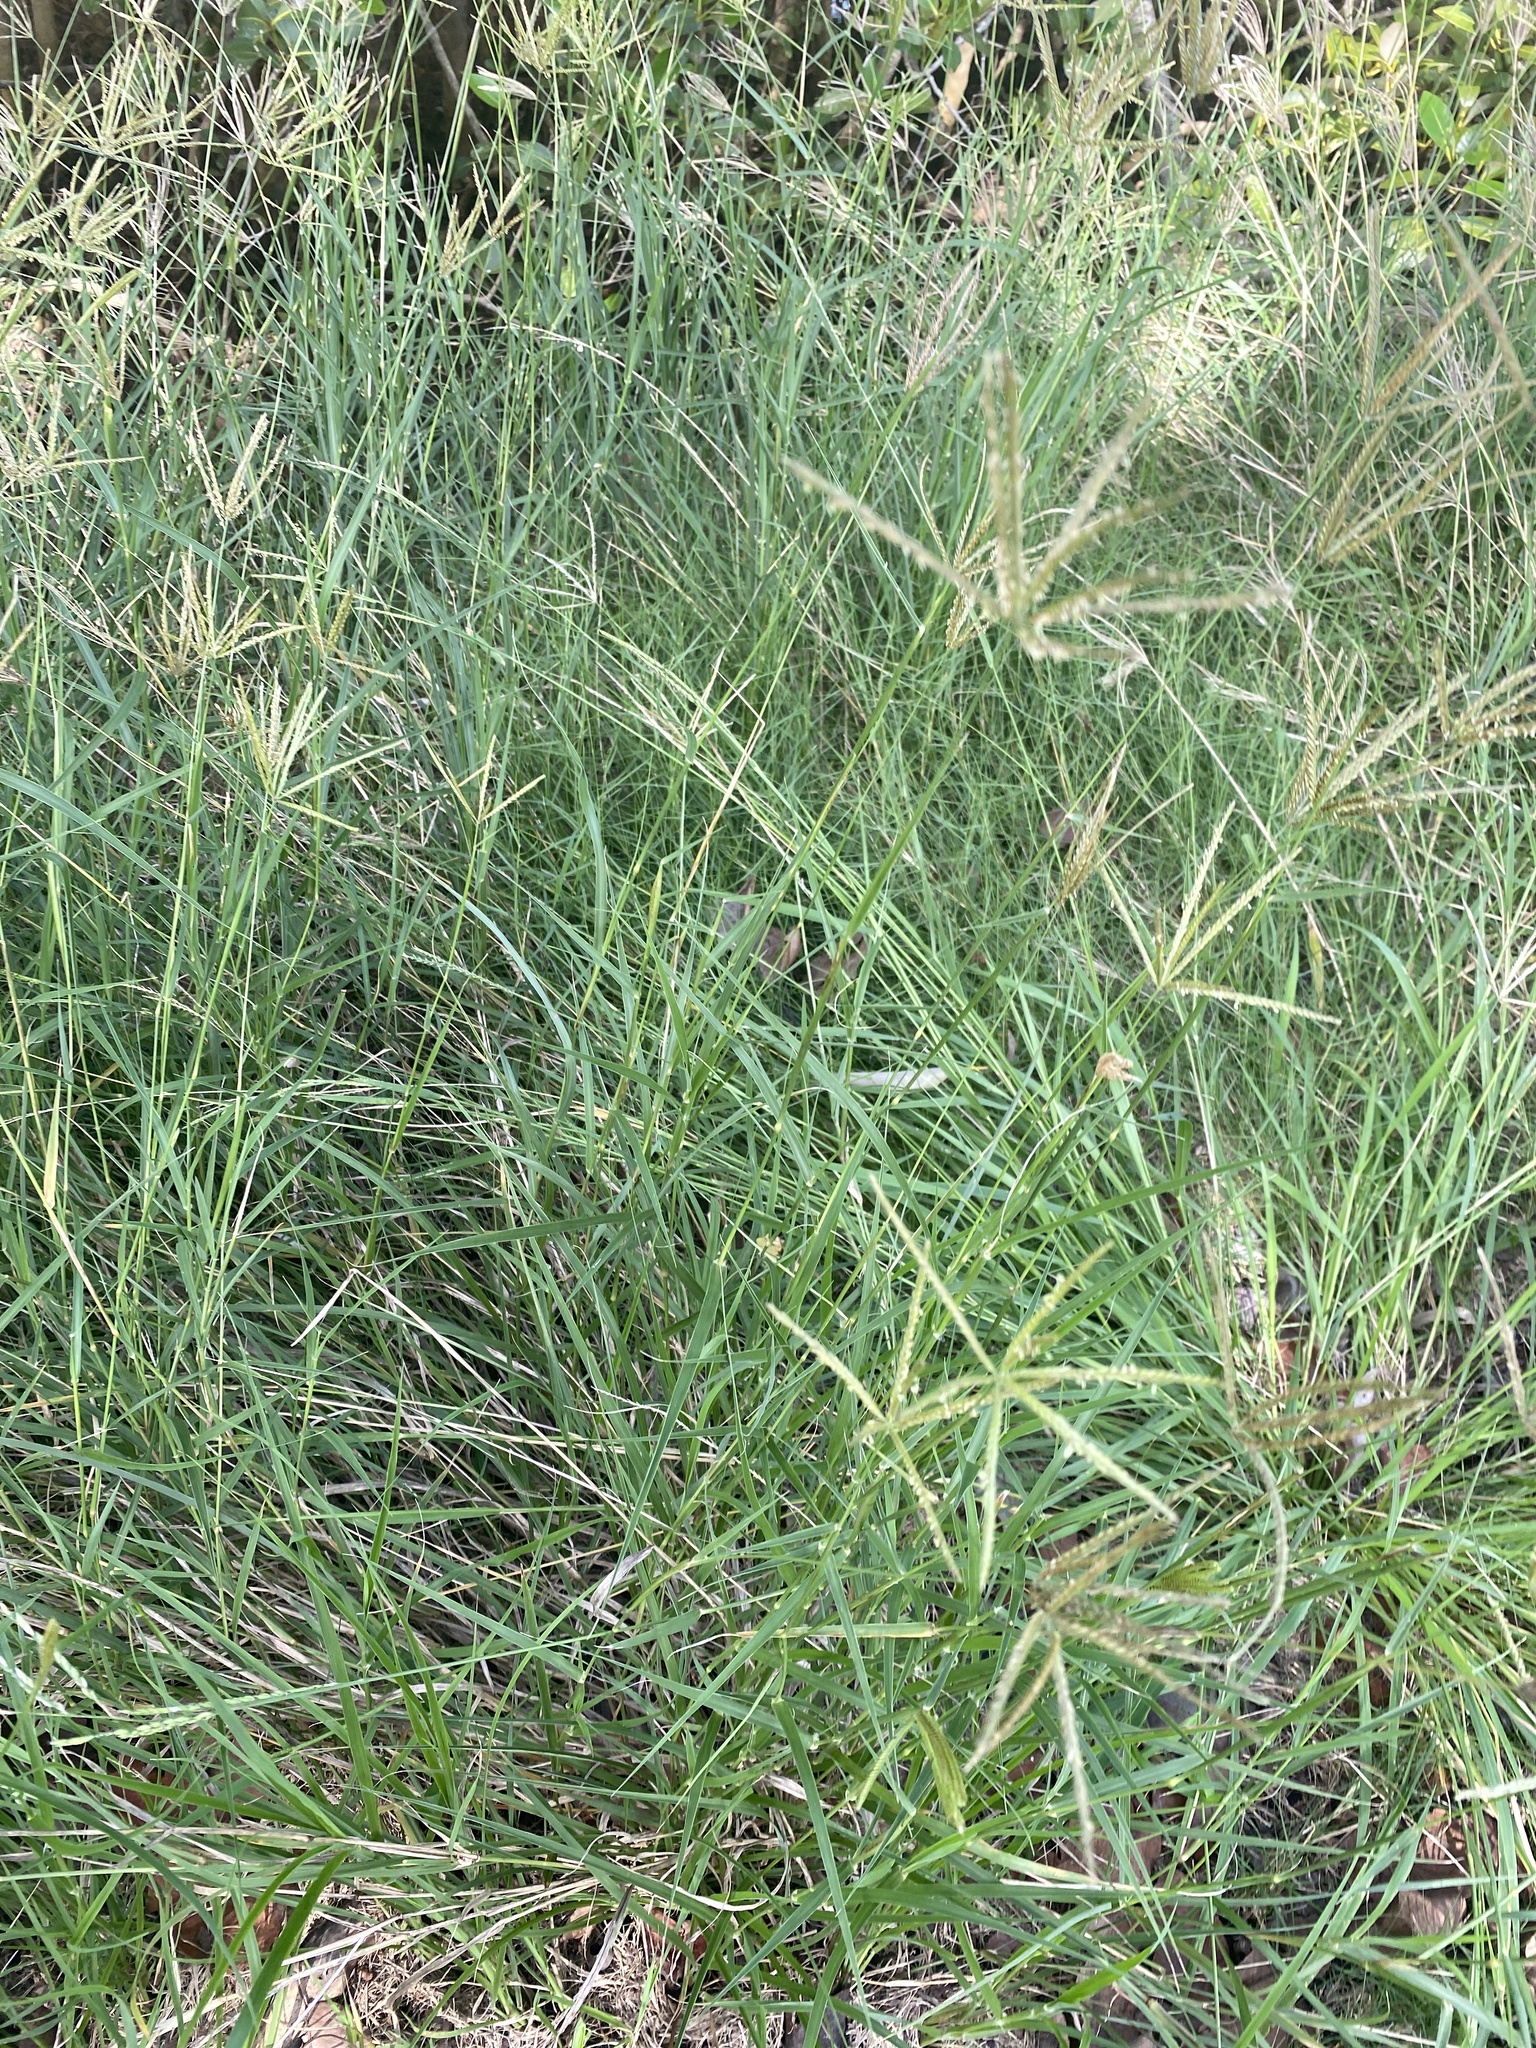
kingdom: Plantae
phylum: Tracheophyta
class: Liliopsida
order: Poales
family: Poaceae
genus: Chloris
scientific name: Chloris gayana
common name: Rhodes grass
